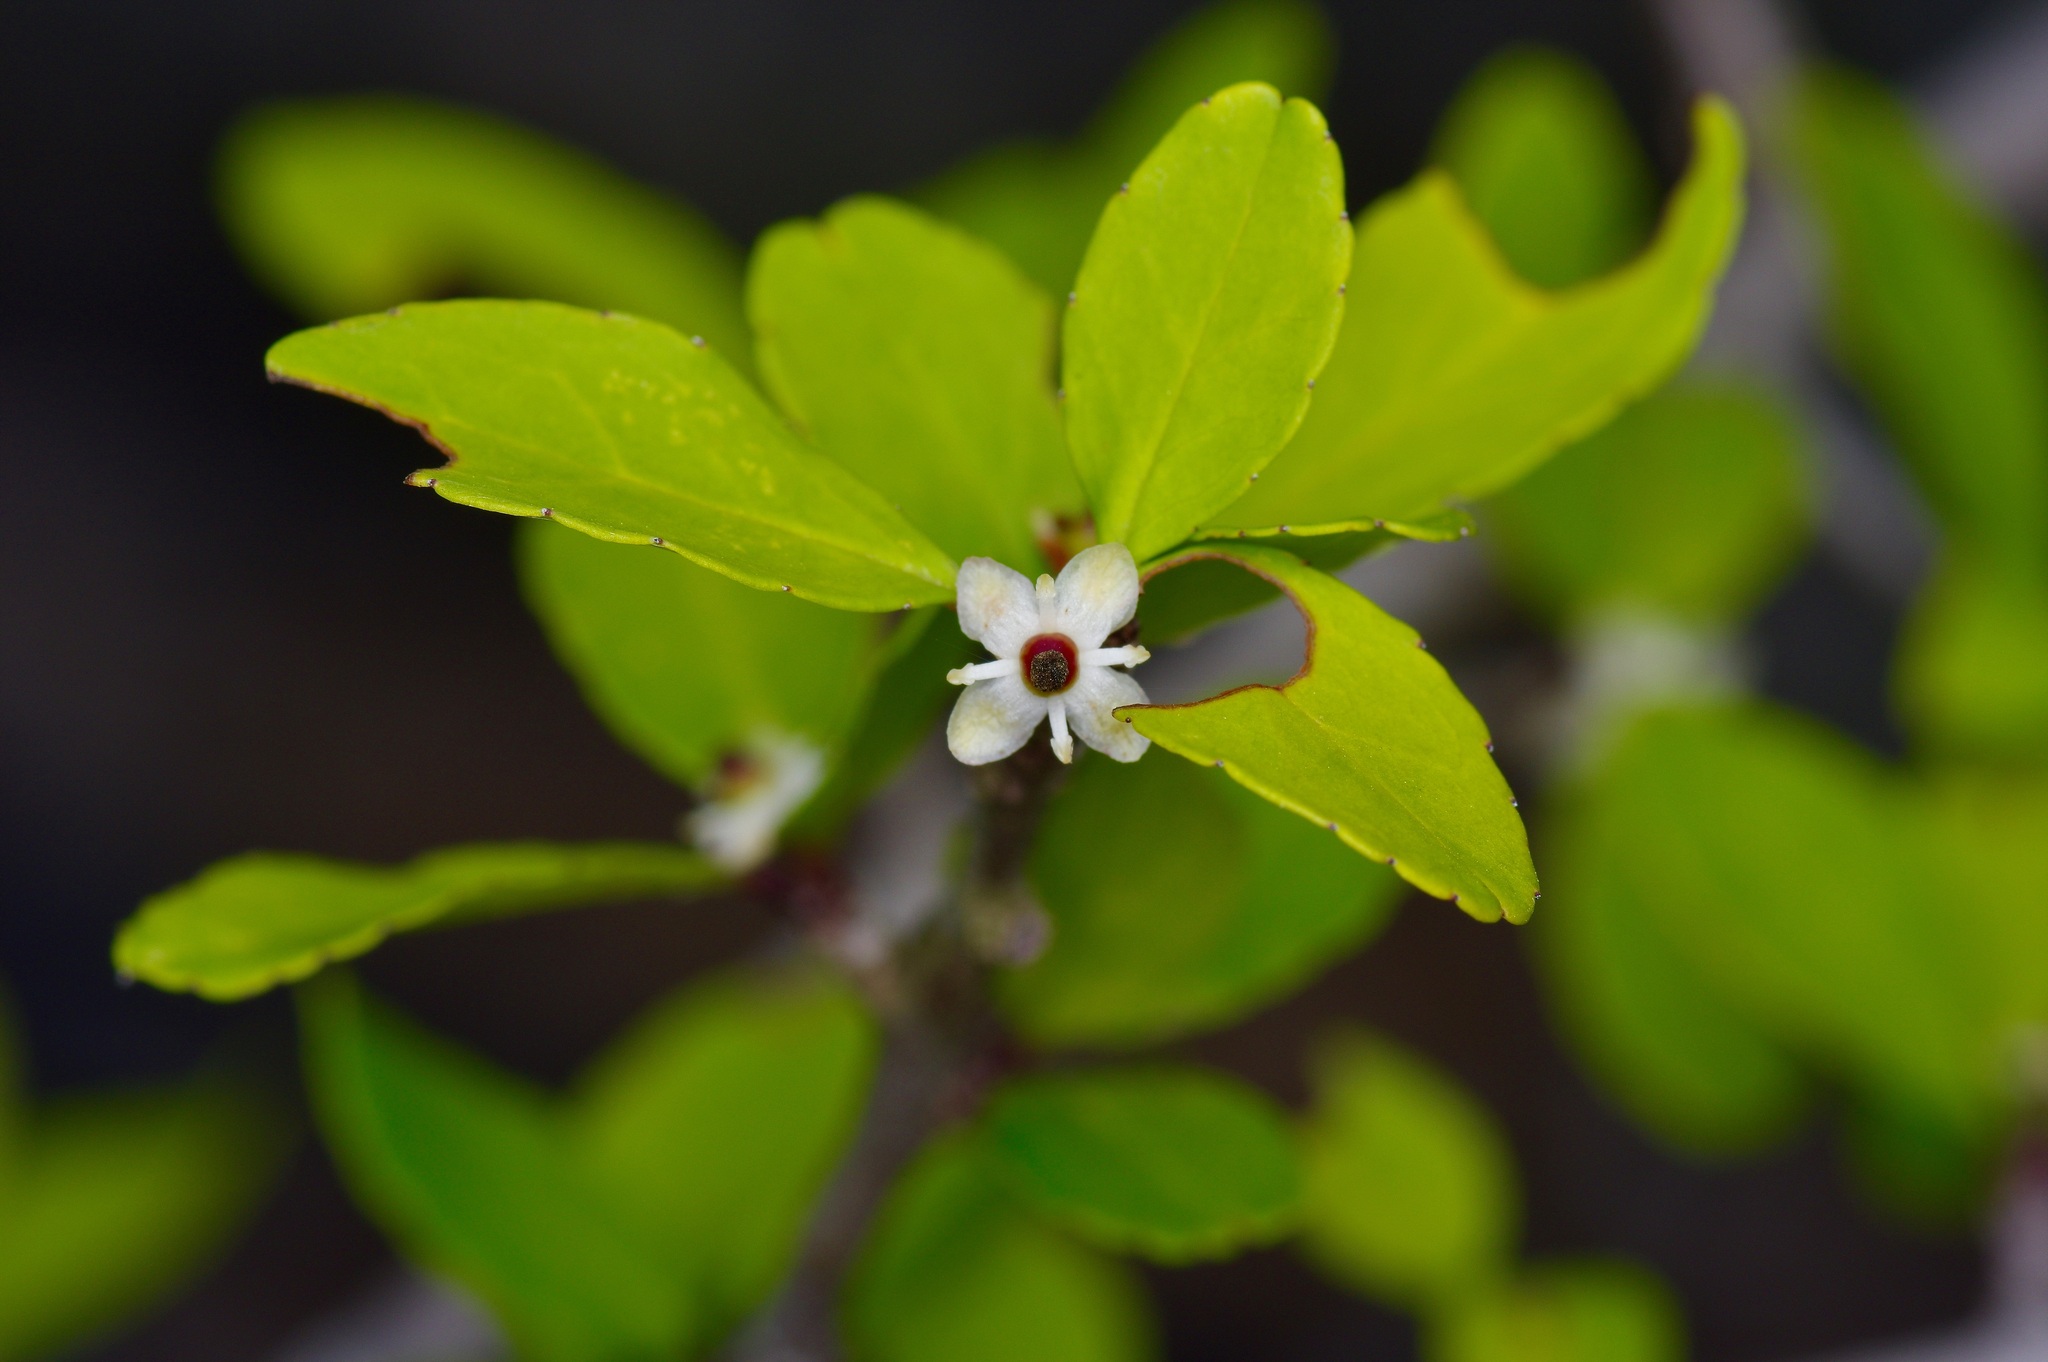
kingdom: Plantae
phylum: Tracheophyta
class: Magnoliopsida
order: Aquifoliales
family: Aquifoliaceae
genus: Ilex
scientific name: Ilex decidua
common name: Possum-haw
